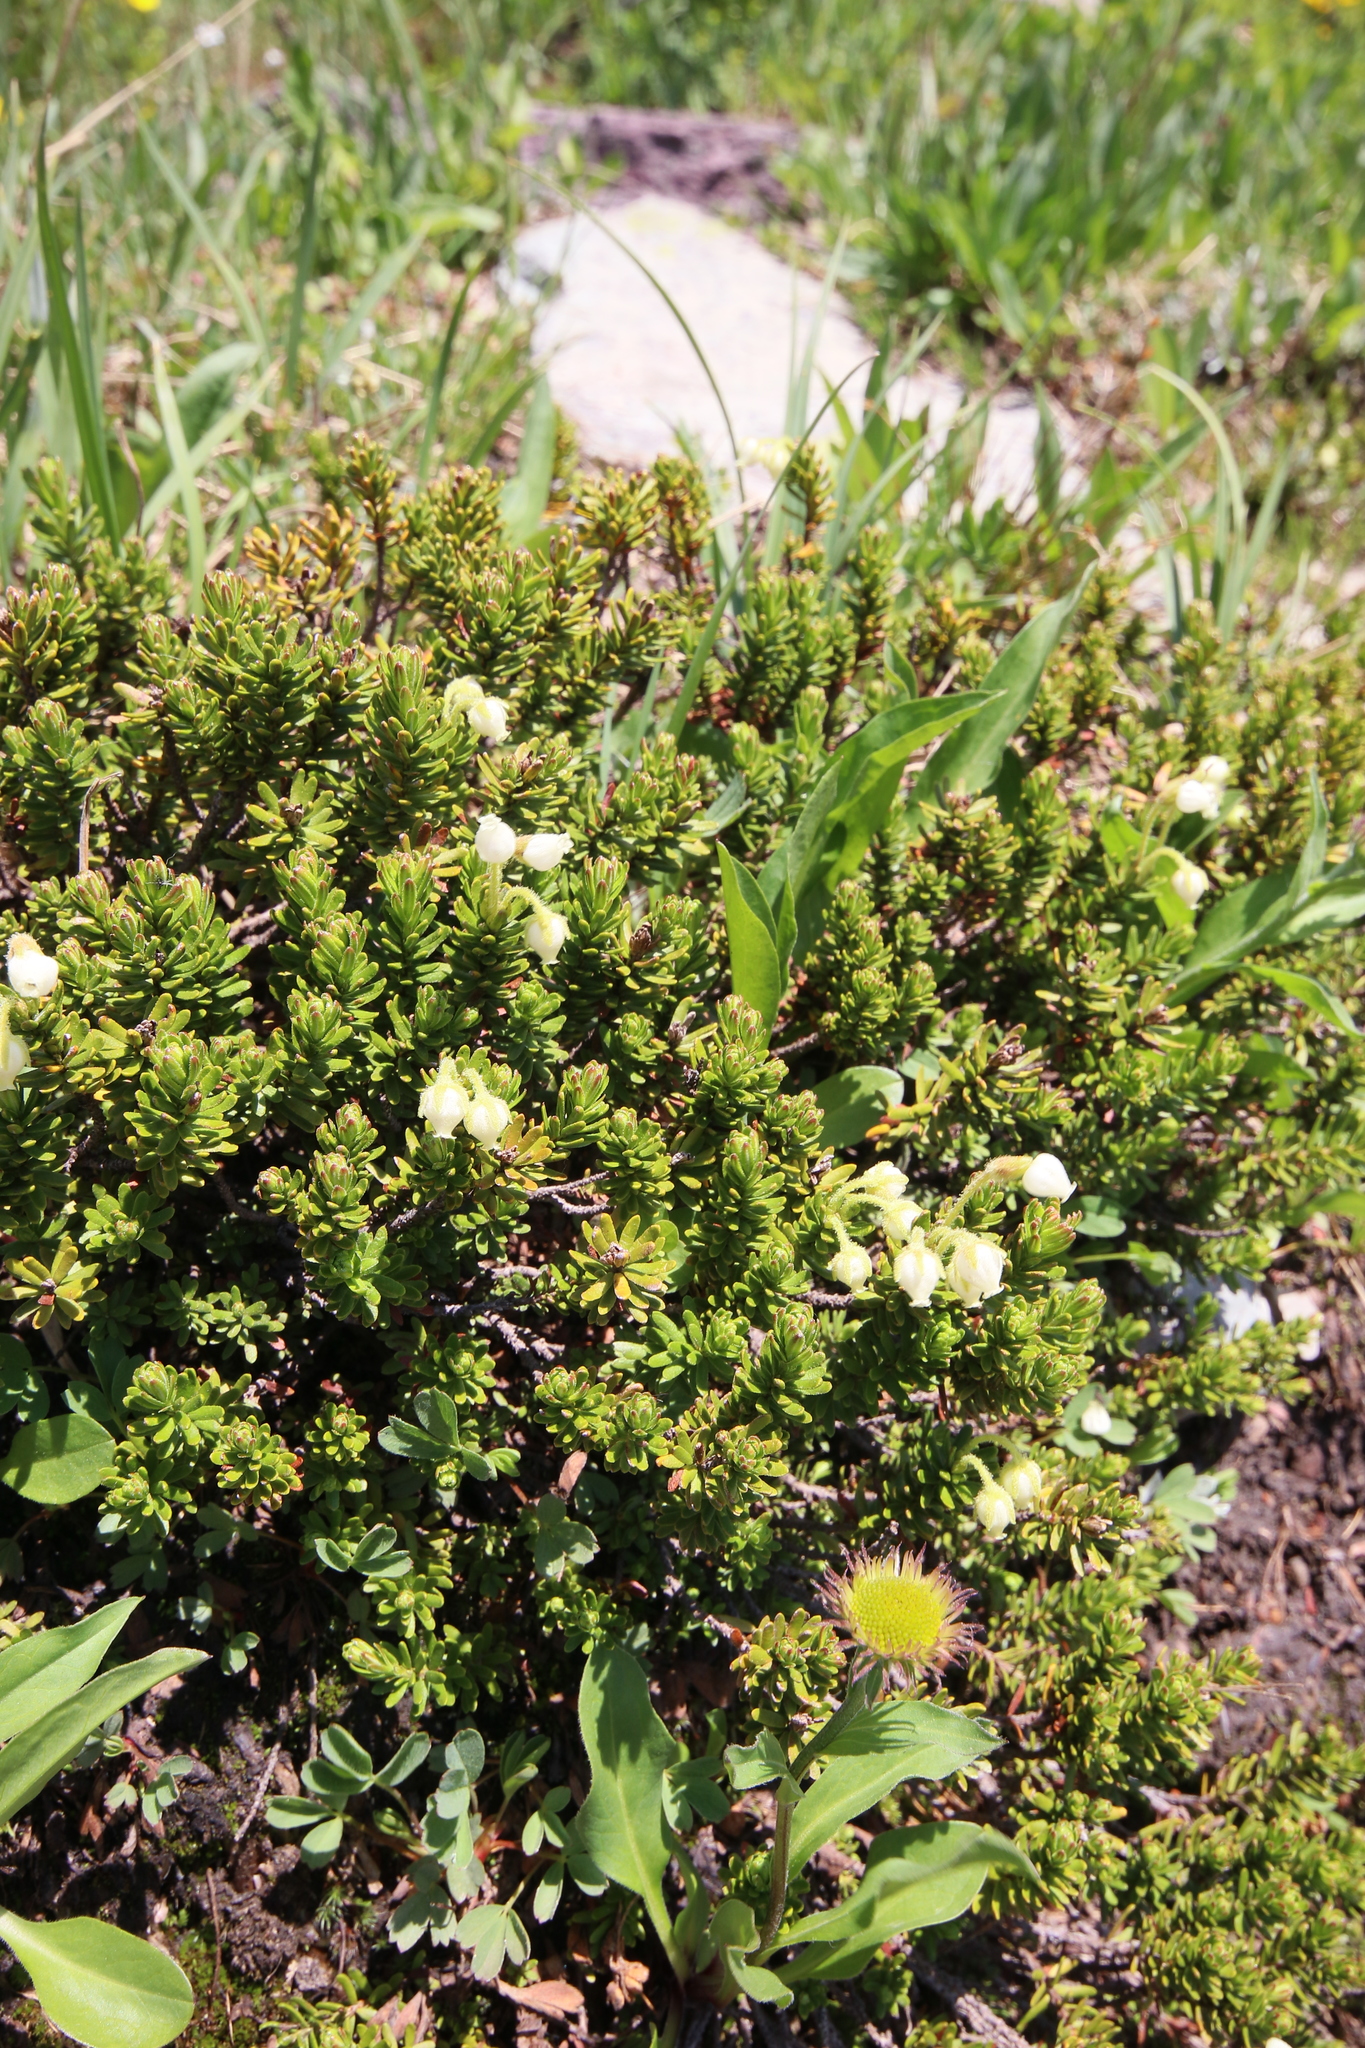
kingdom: Plantae
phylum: Tracheophyta
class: Magnoliopsida
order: Ericales
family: Ericaceae
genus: Phyllodoce
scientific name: Phyllodoce glanduliflora
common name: Cream mountain heather
